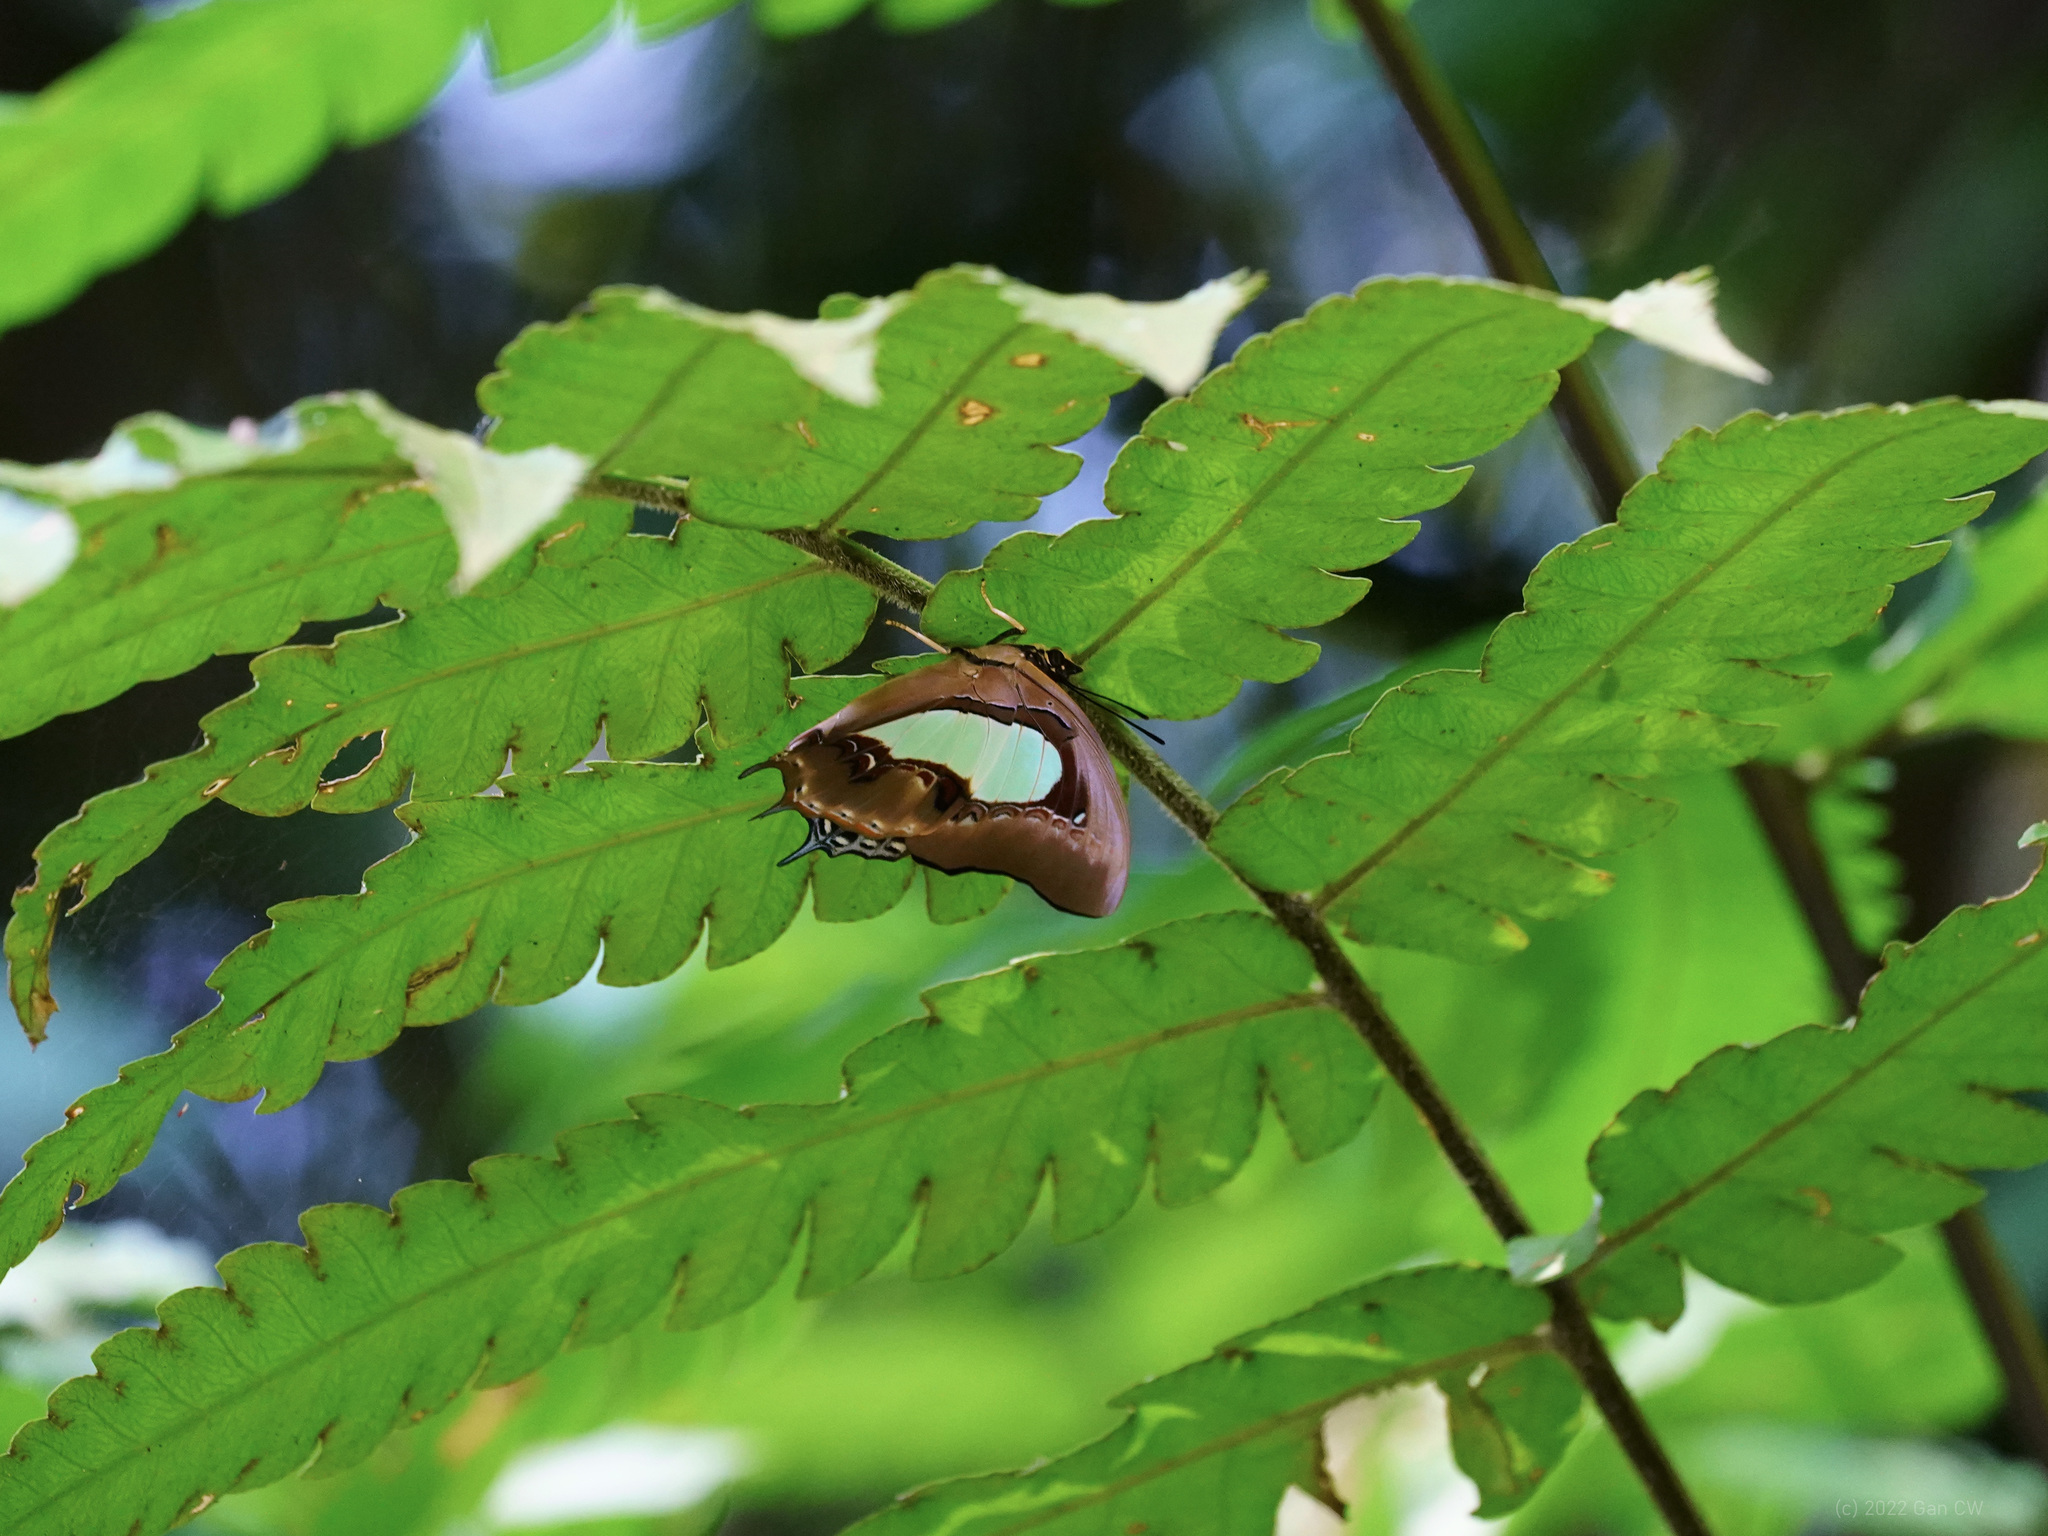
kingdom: Animalia
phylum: Arthropoda
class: Insecta
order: Lepidoptera
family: Nymphalidae
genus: Polyura
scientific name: Polyura hebe
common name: Plain nawab
